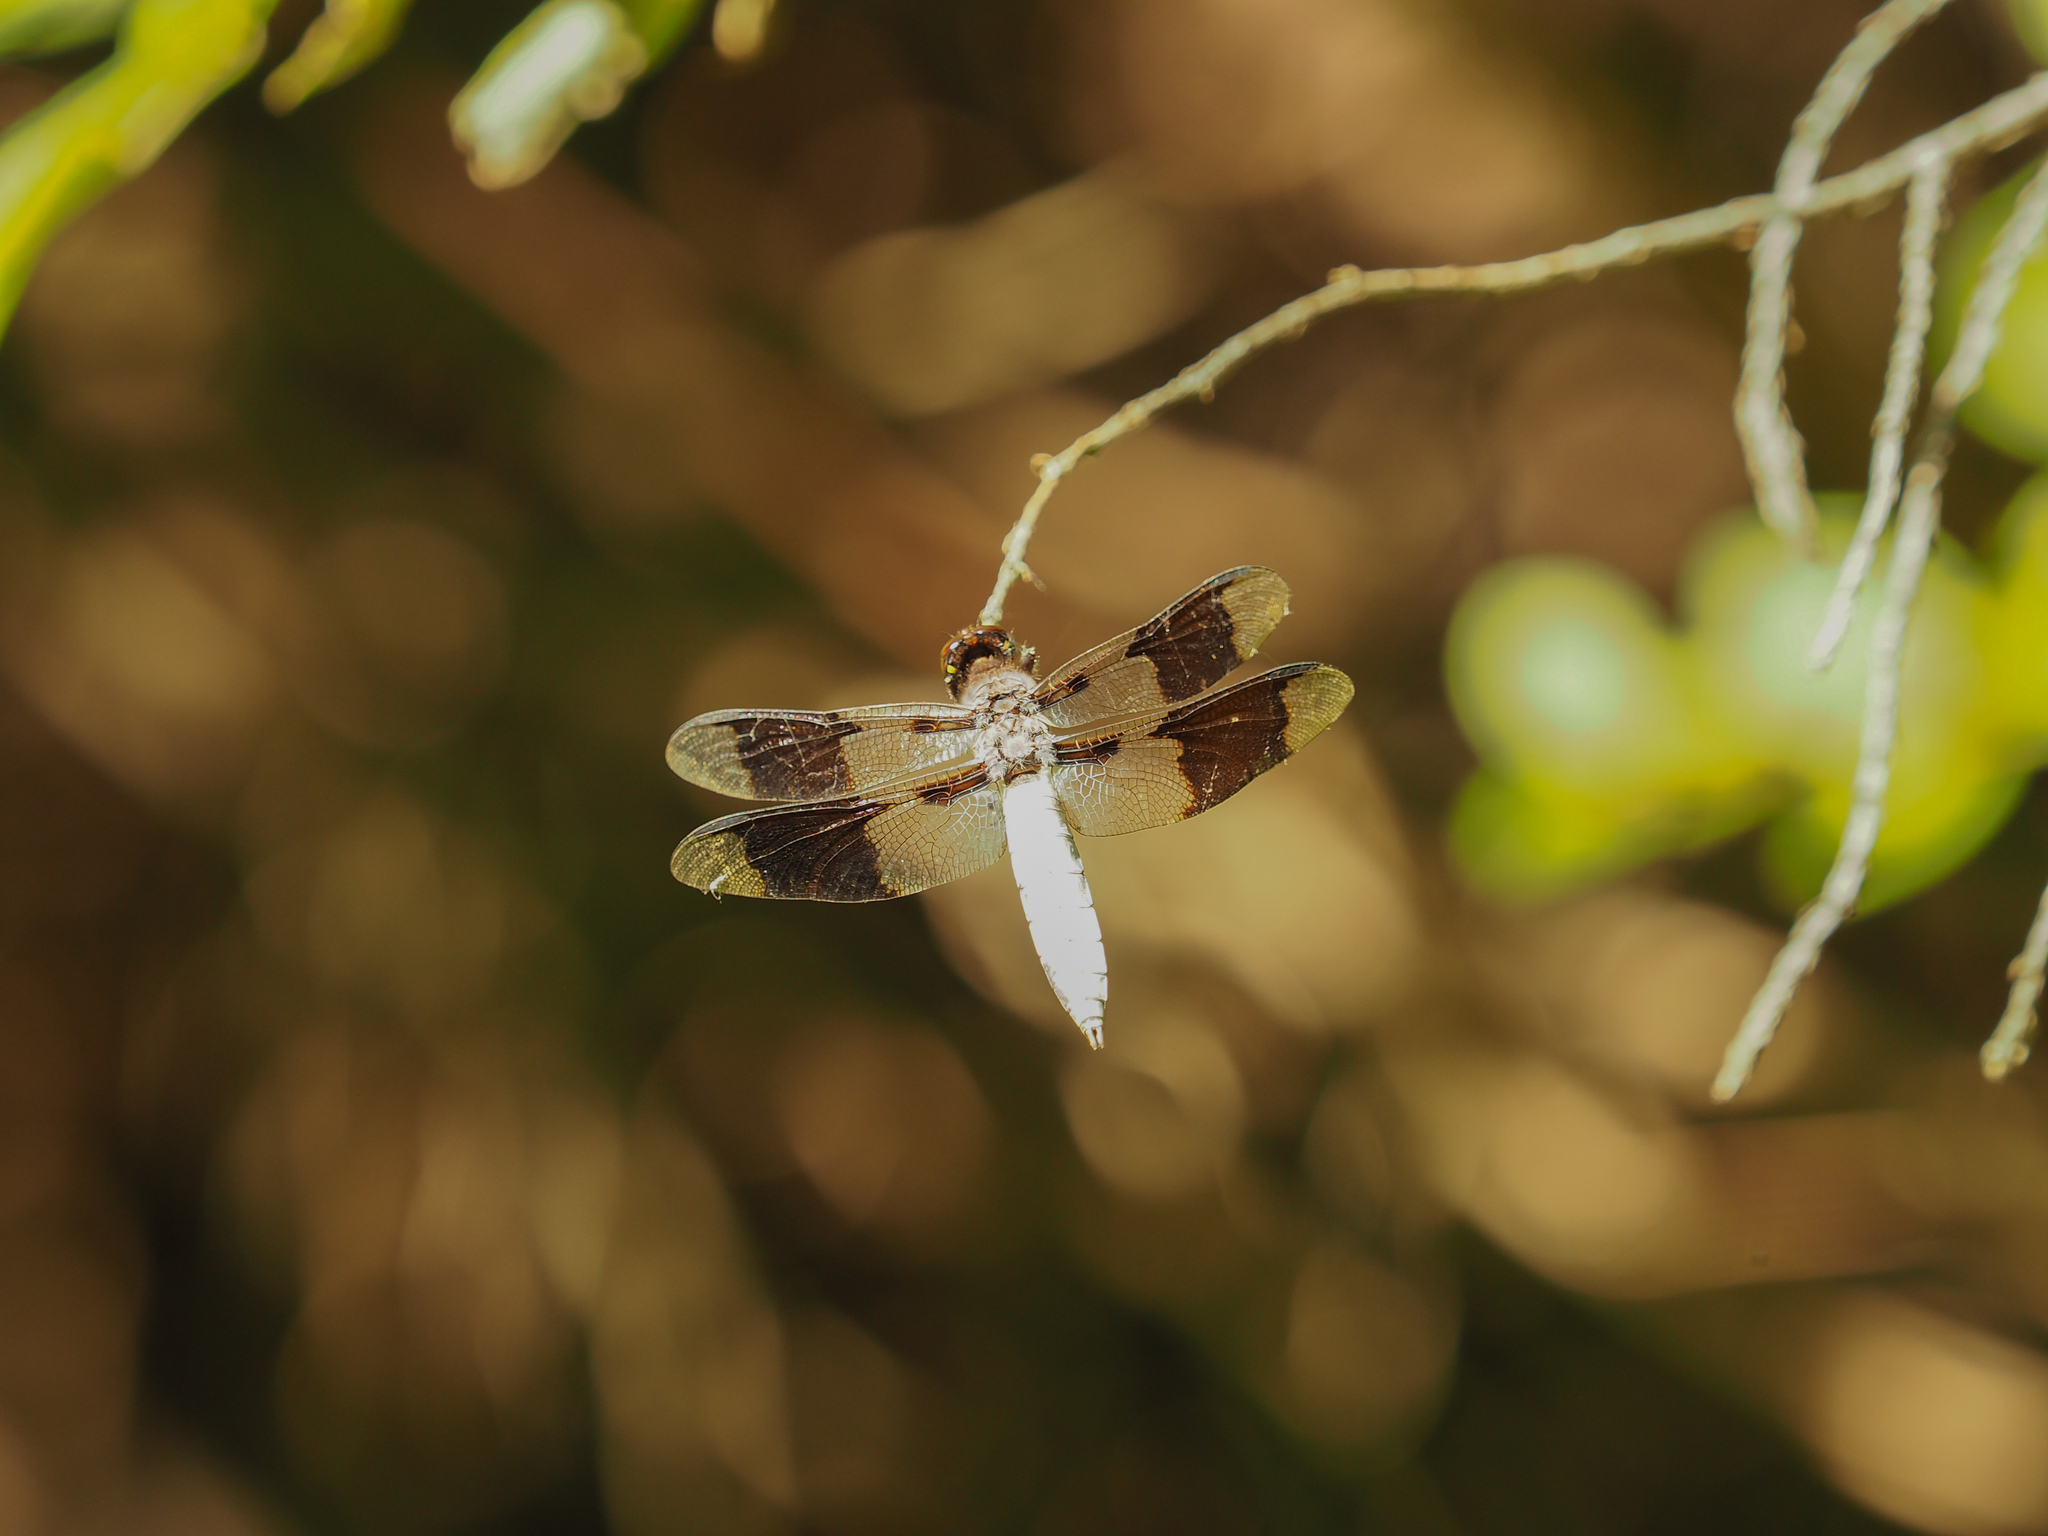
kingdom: Animalia
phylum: Arthropoda
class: Insecta
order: Odonata
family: Libellulidae
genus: Plathemis
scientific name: Plathemis lydia
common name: Common whitetail
